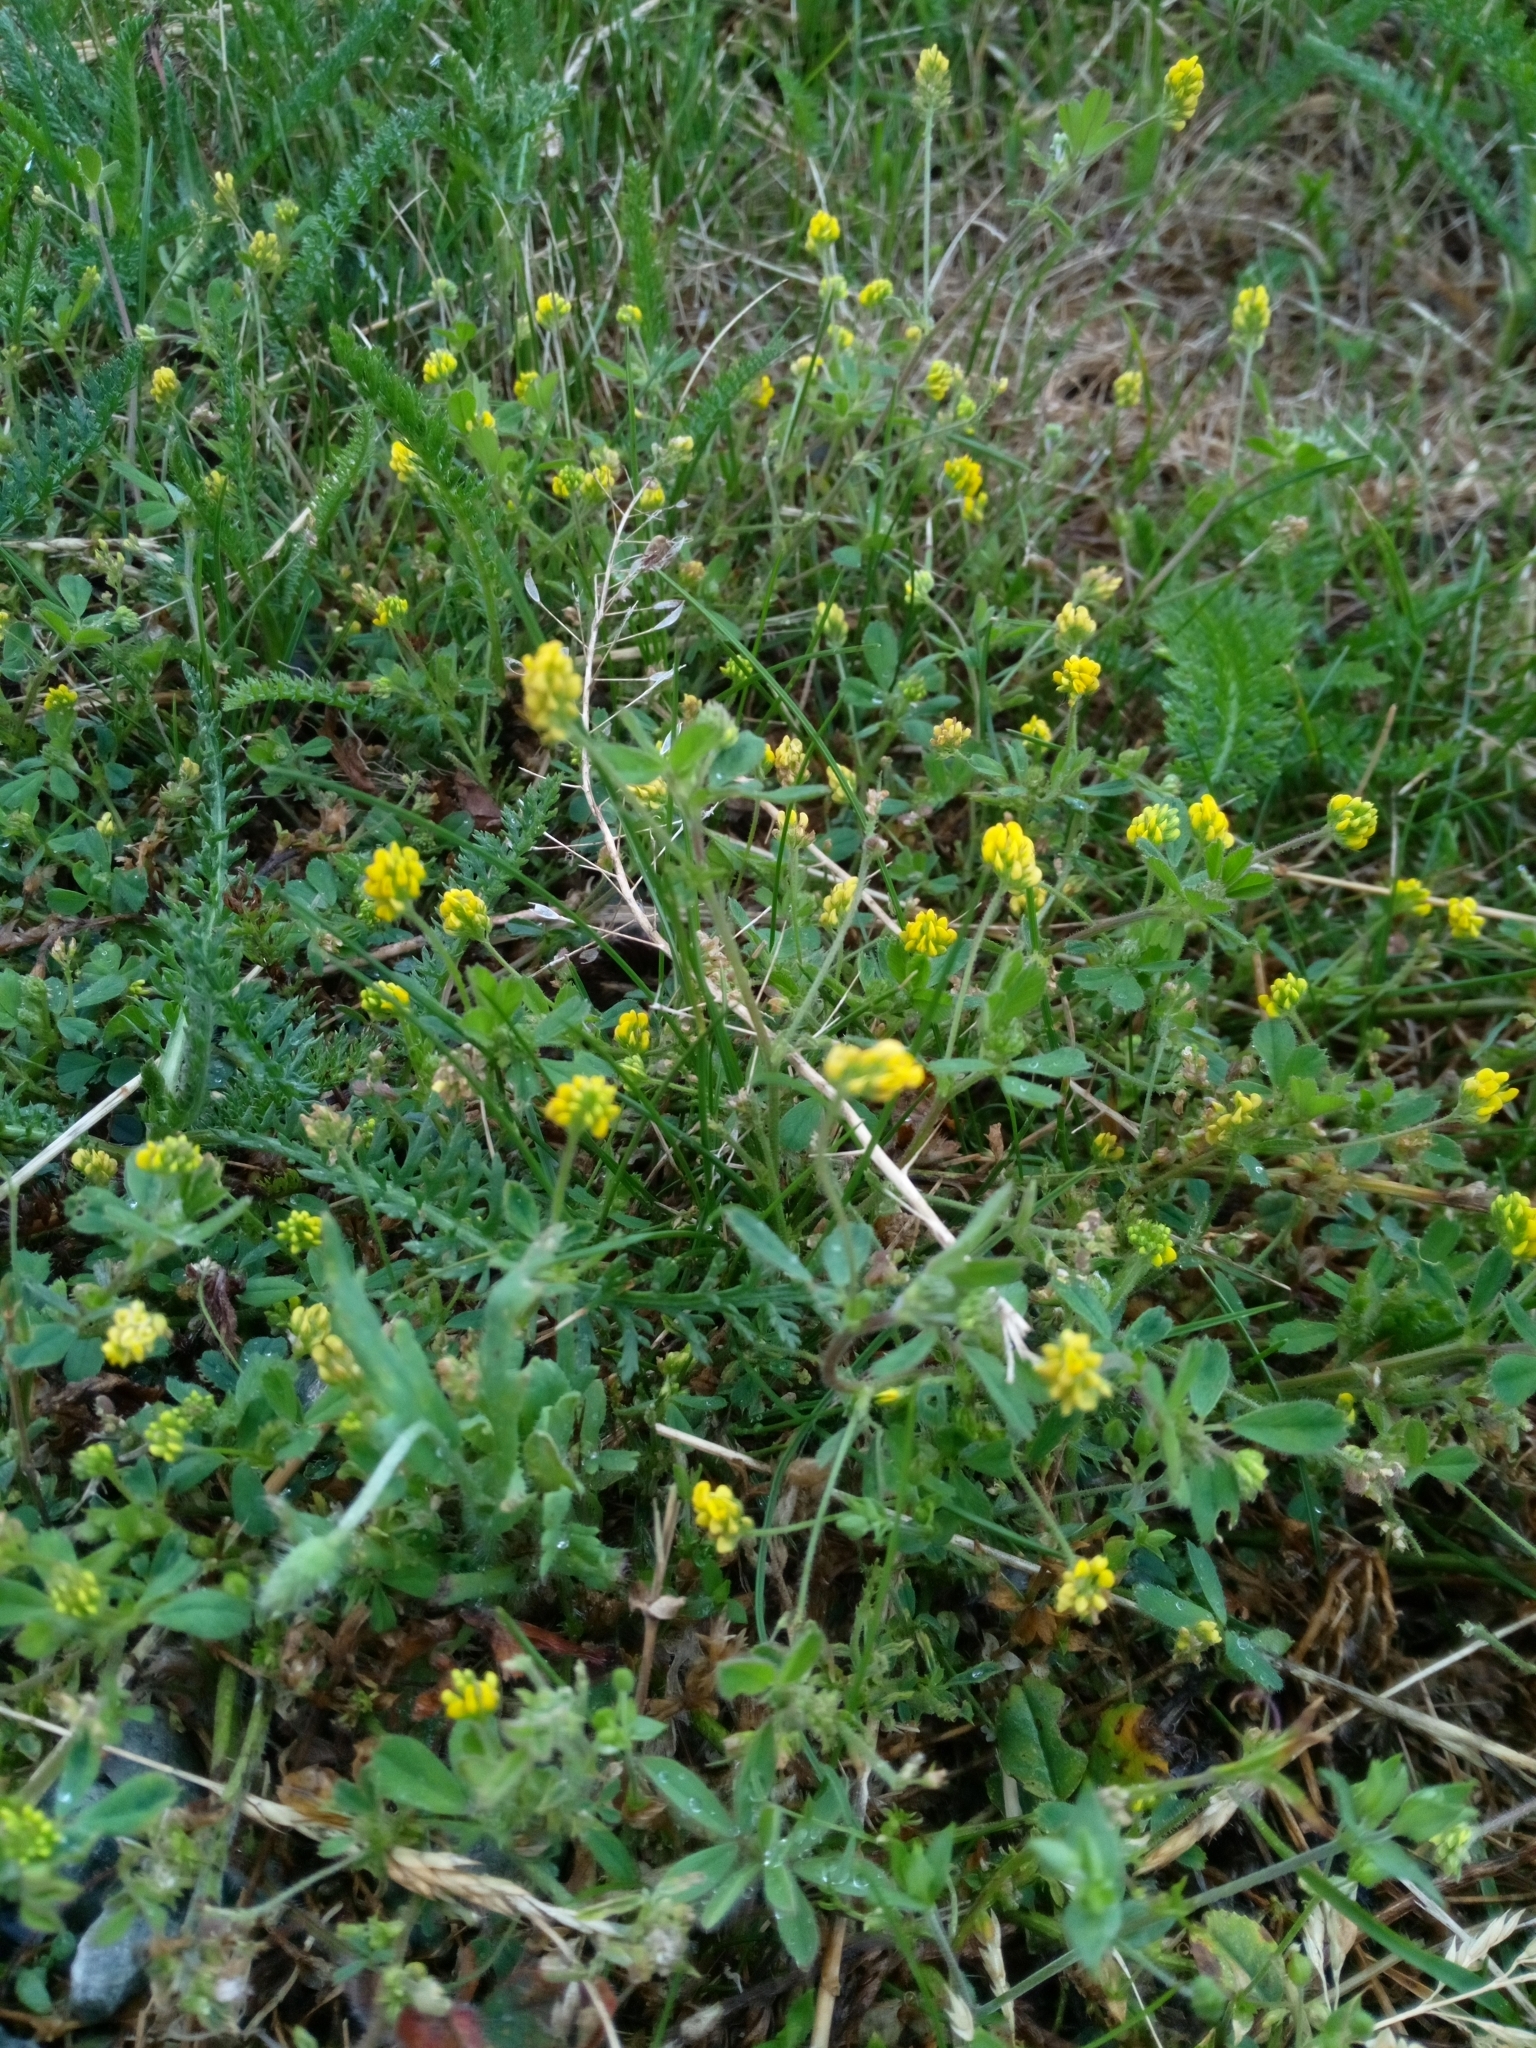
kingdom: Plantae
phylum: Tracheophyta
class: Magnoliopsida
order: Fabales
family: Fabaceae
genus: Medicago
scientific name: Medicago lupulina
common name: Black medick
